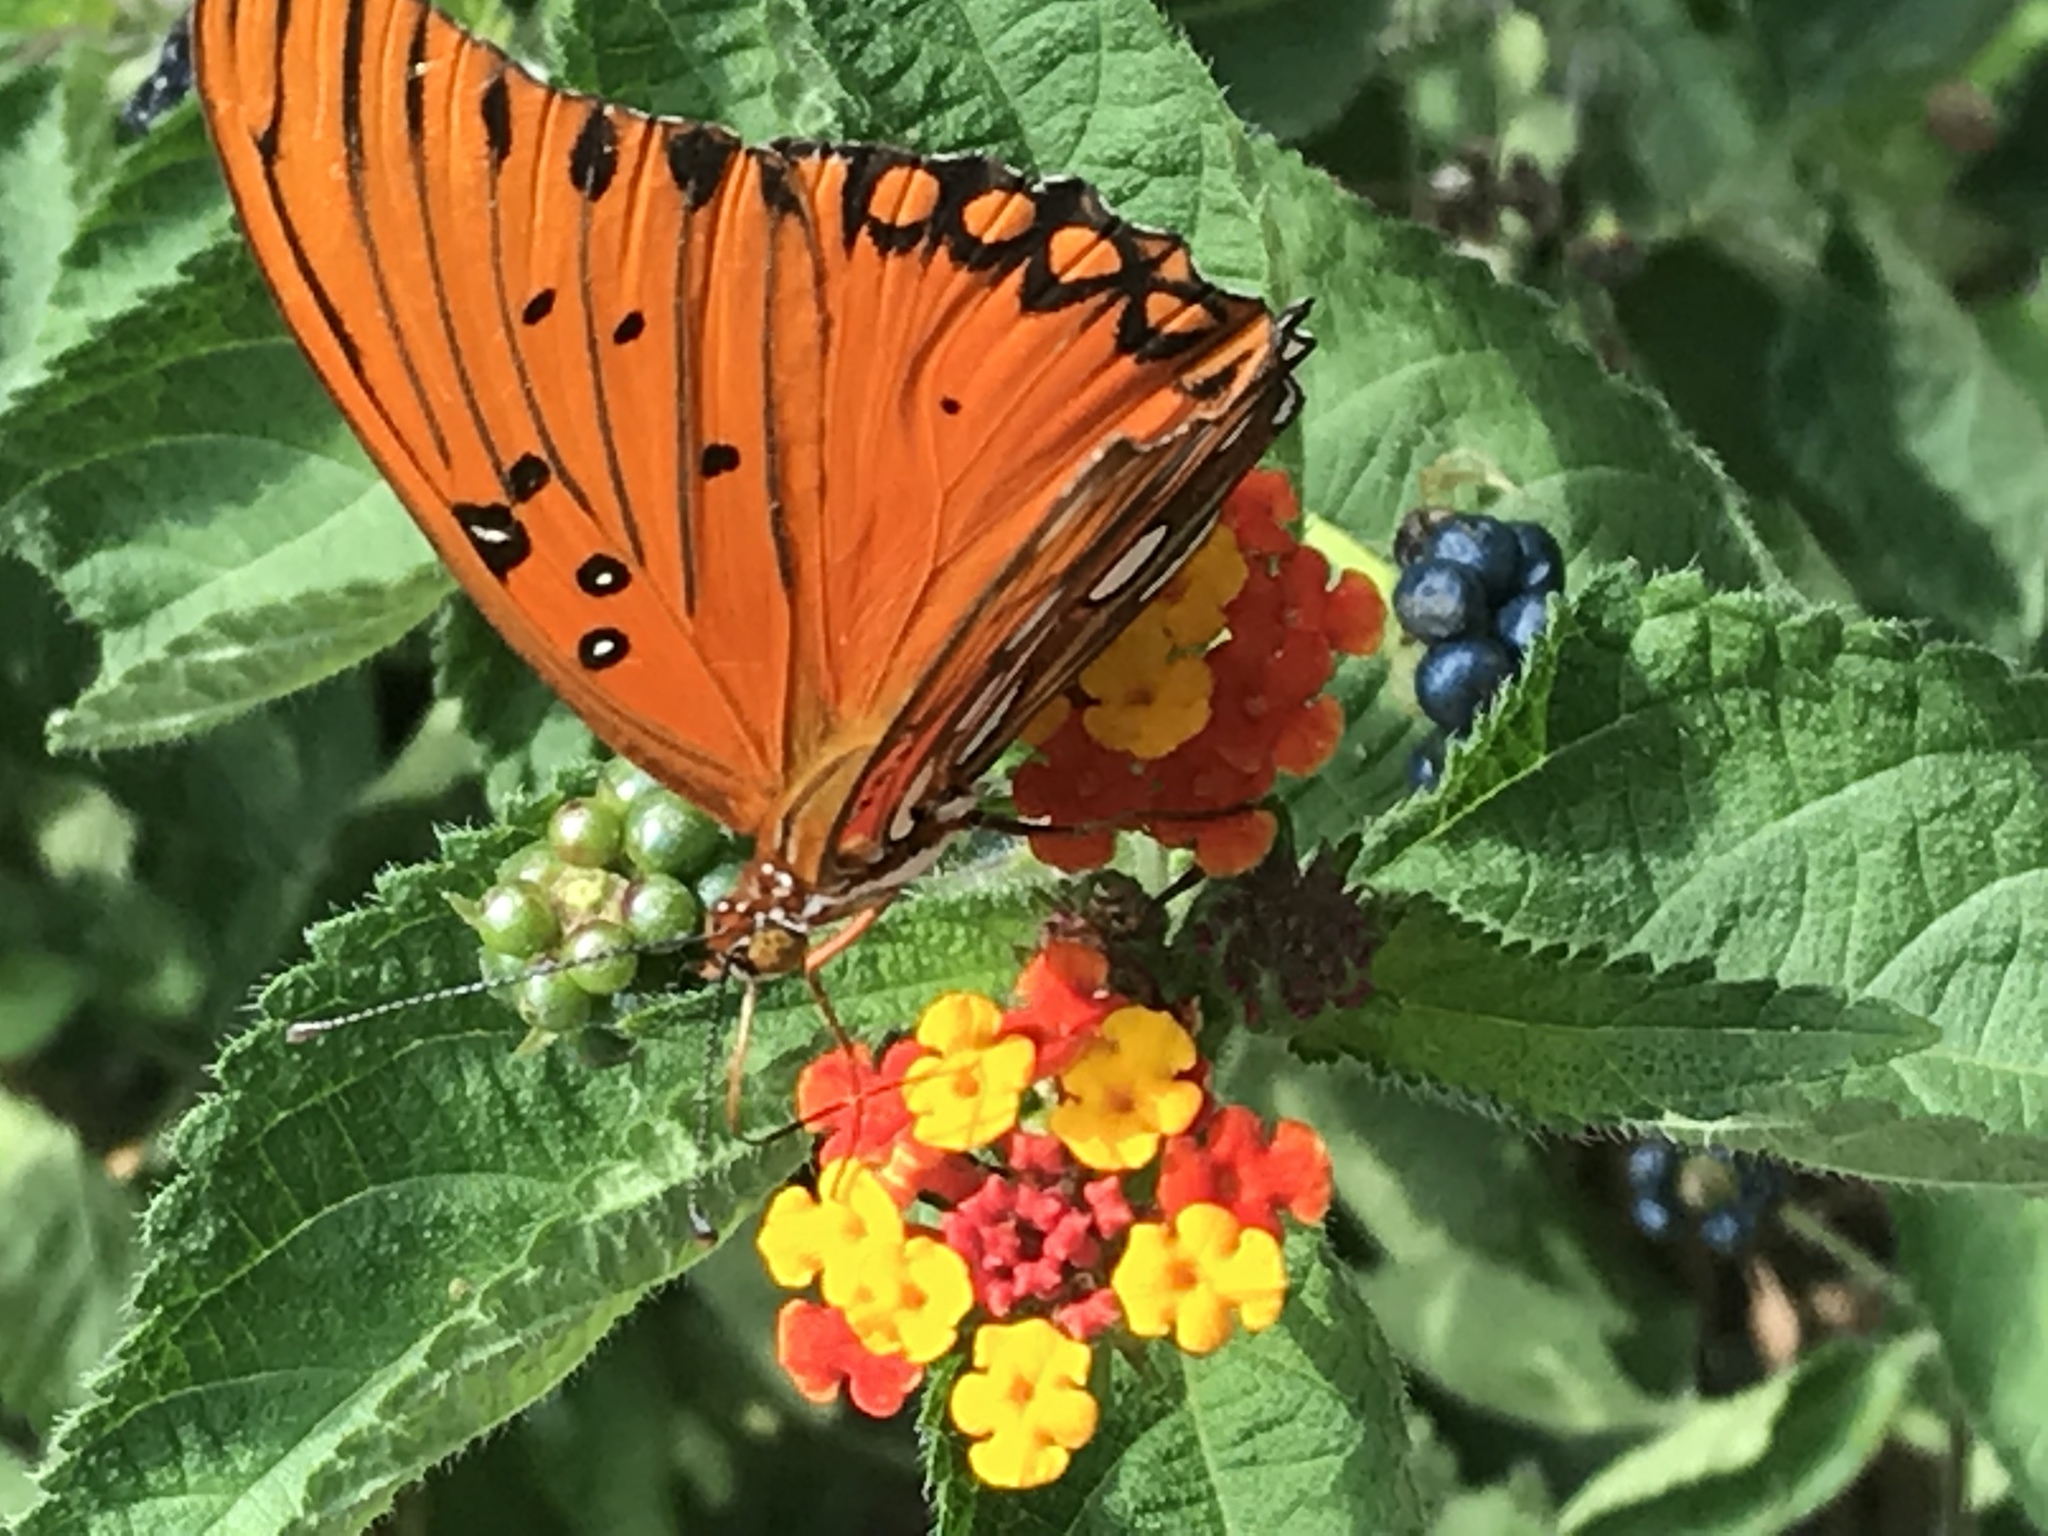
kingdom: Animalia
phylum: Arthropoda
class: Insecta
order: Lepidoptera
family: Nymphalidae
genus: Dione
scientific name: Dione vanillae
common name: Gulf fritillary
